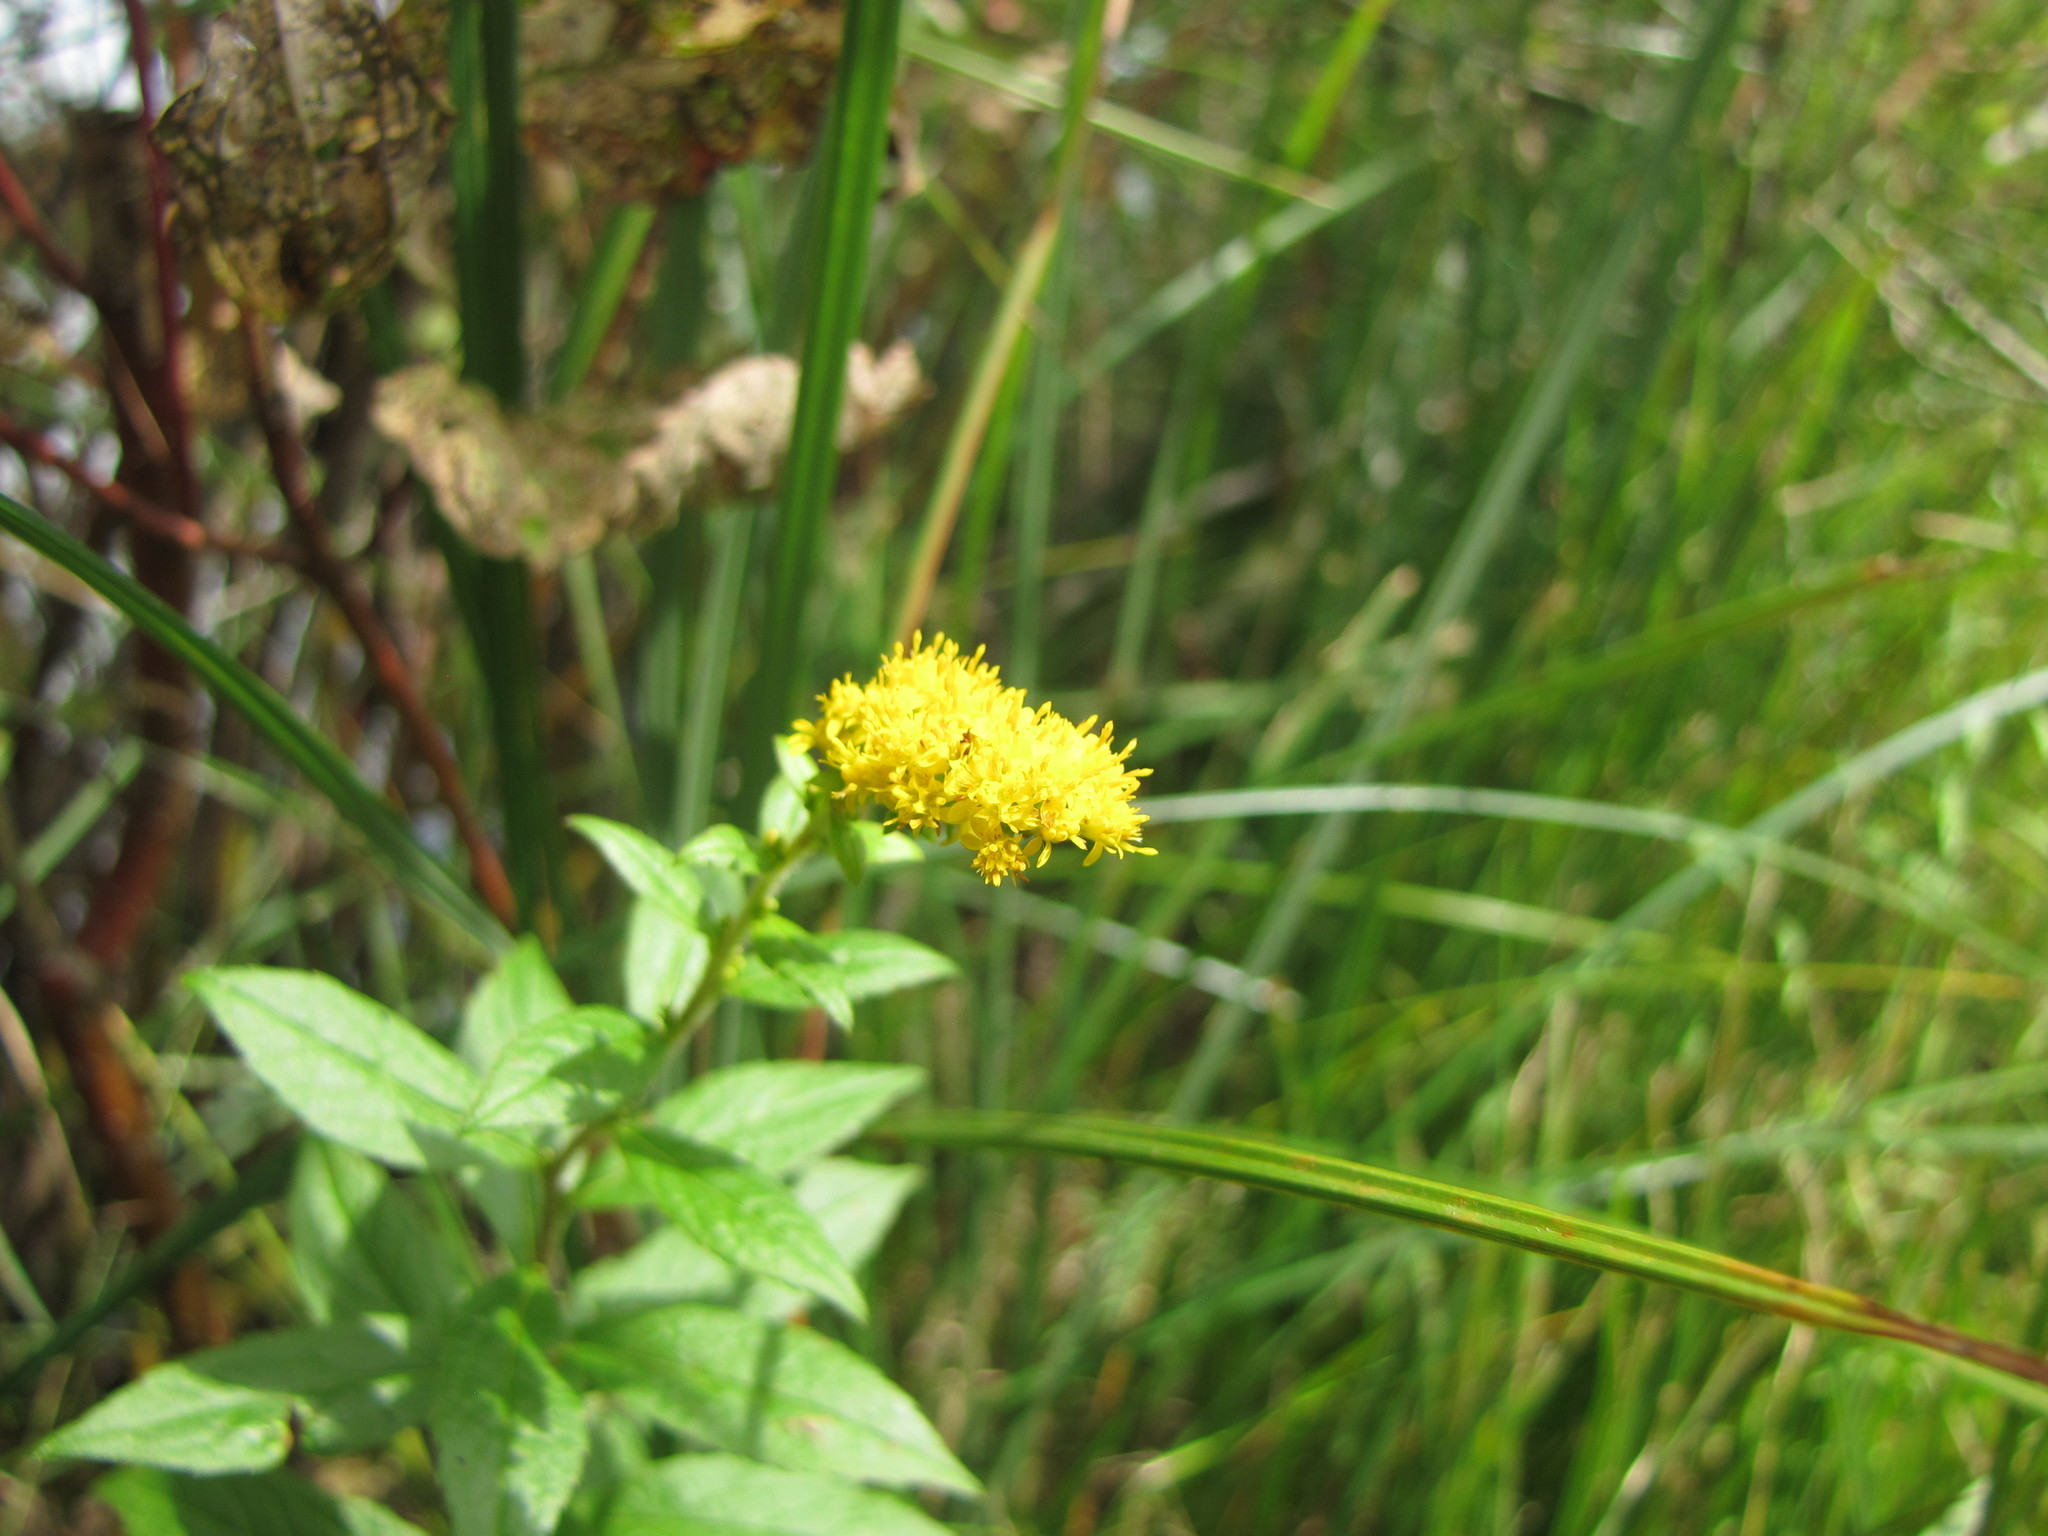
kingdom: Plantae
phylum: Tracheophyta
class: Magnoliopsida
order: Asterales
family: Asteraceae
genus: Solidago
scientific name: Solidago rugosa
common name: Rough-stemmed goldenrod
